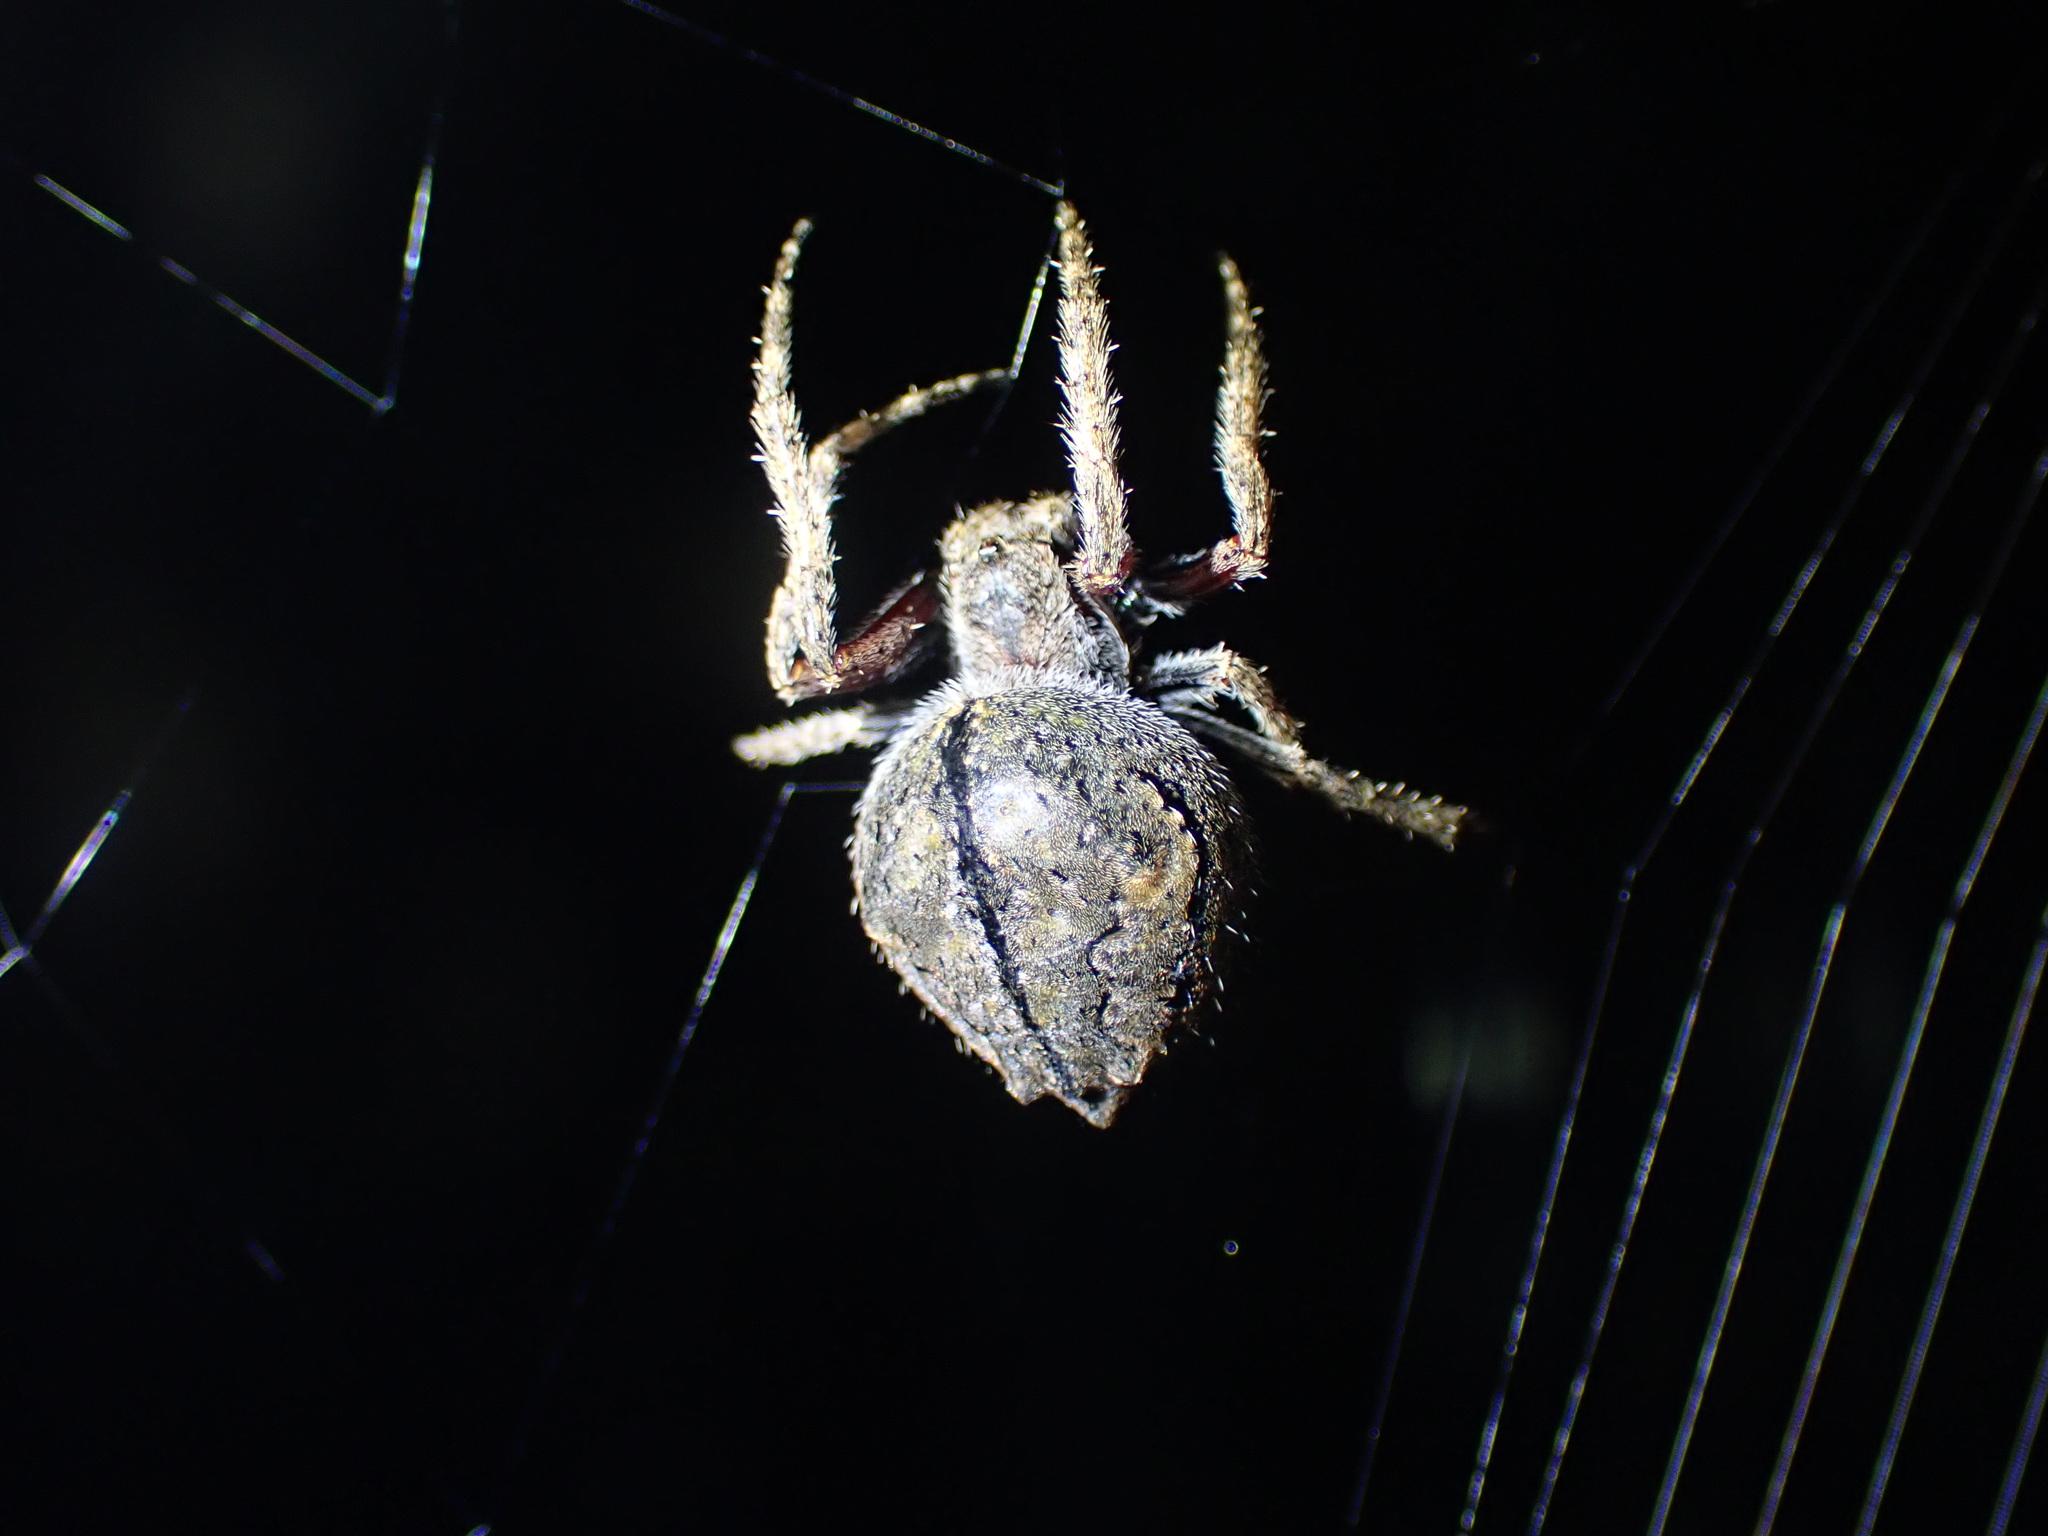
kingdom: Animalia
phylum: Arthropoda
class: Arachnida
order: Araneae
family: Araneidae
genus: Eriophora
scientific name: Eriophora pustulosa
